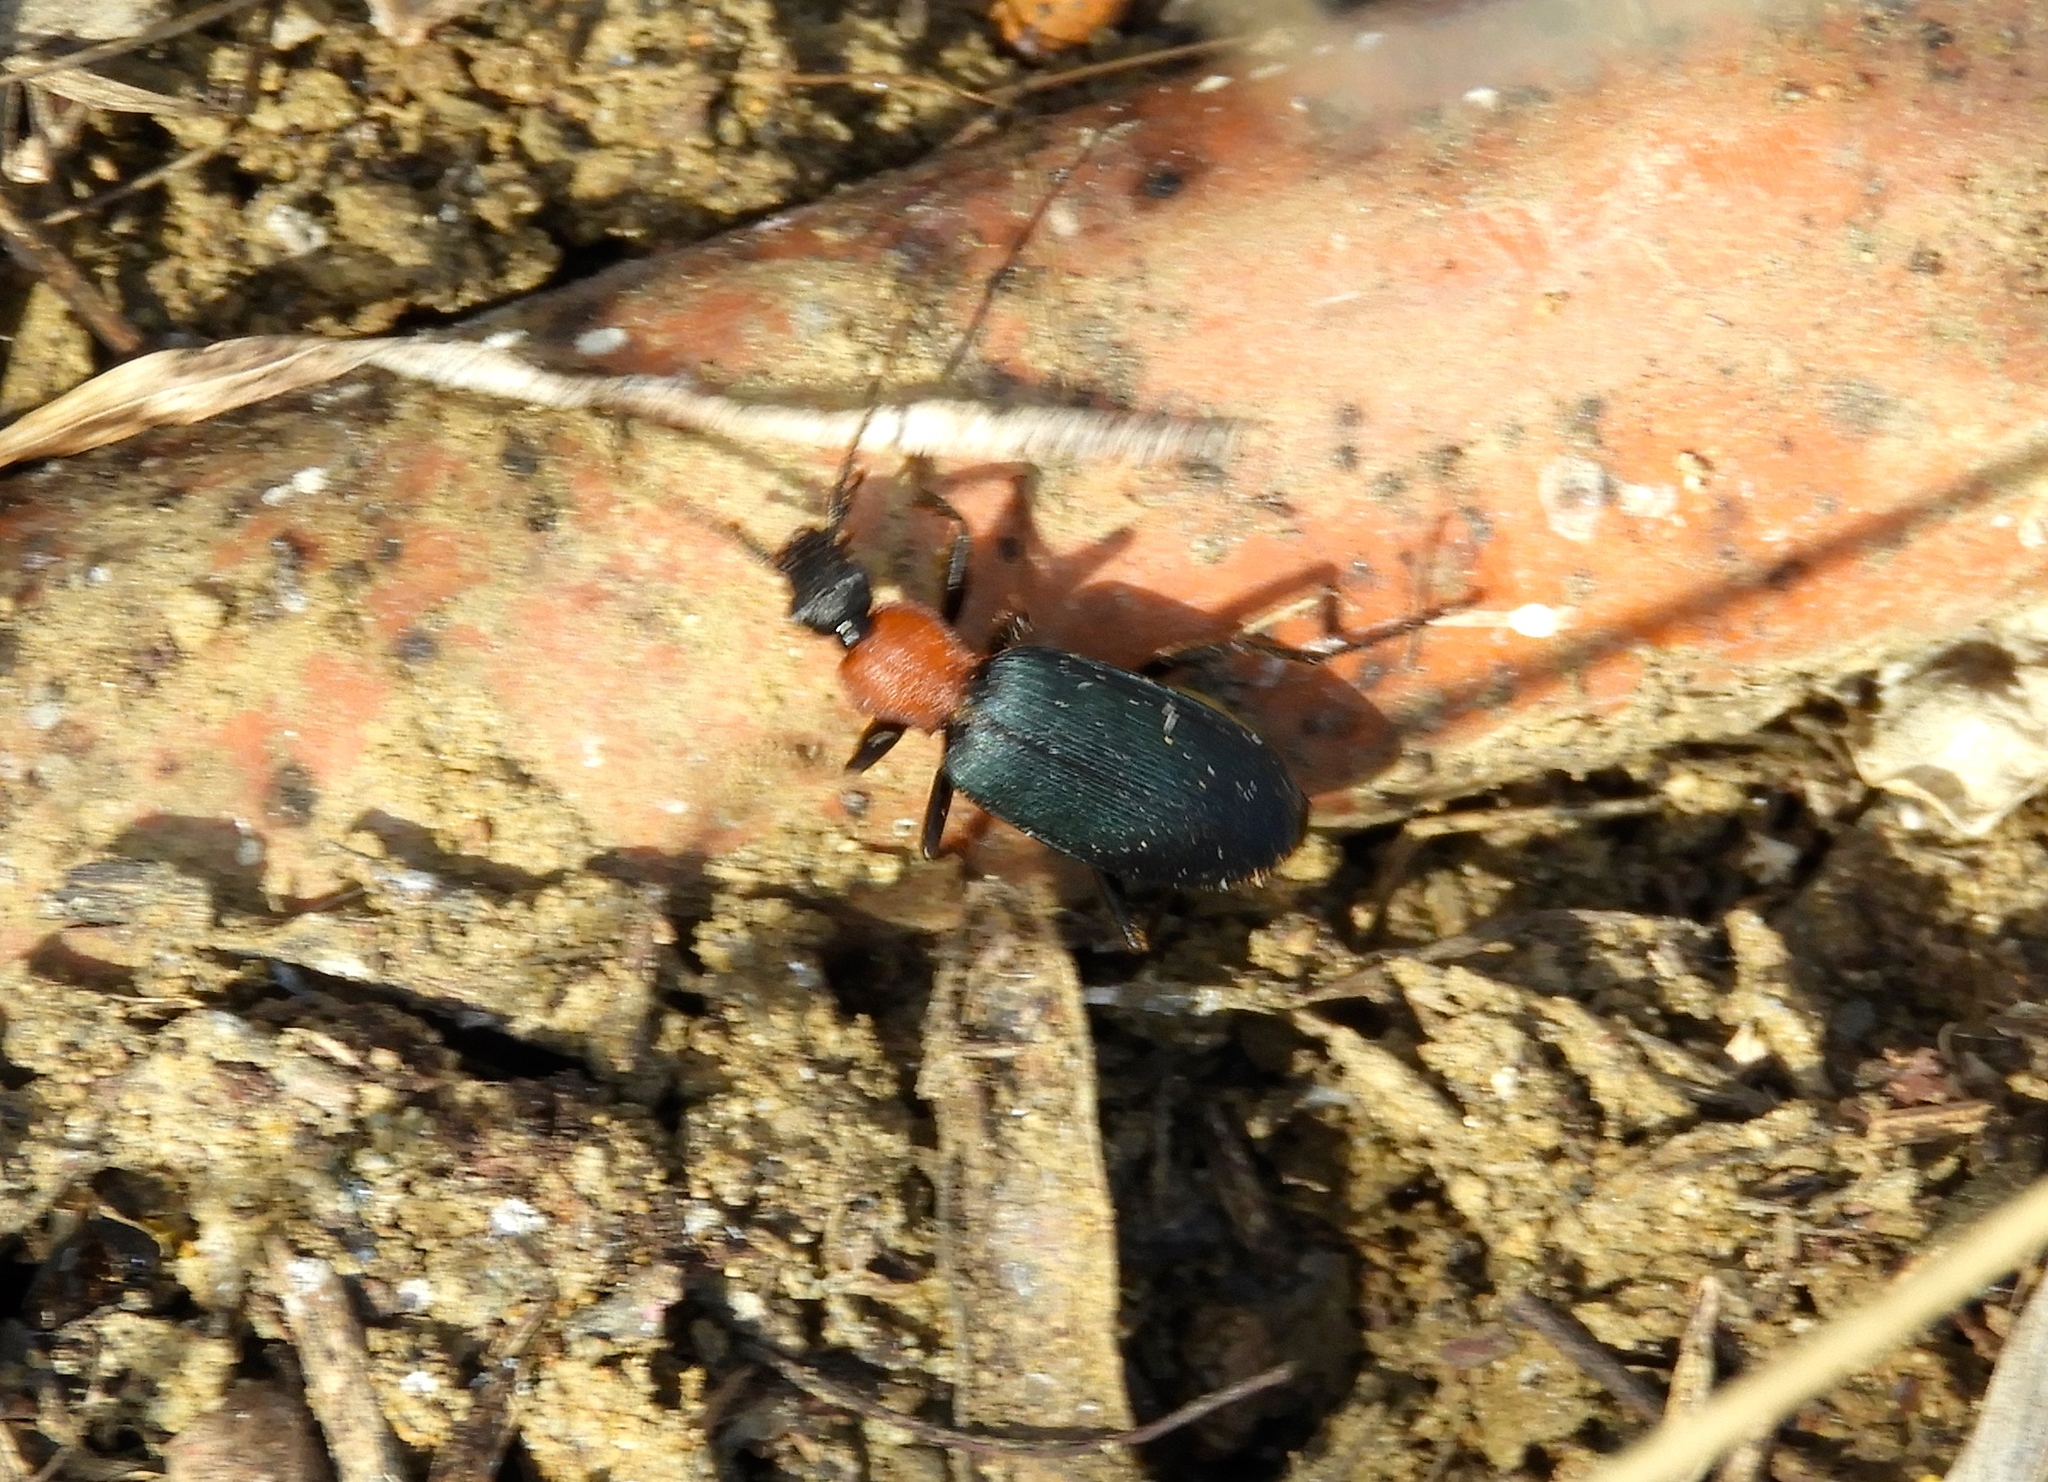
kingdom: Animalia
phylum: Arthropoda
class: Insecta
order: Coleoptera
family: Carabidae
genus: Galerita
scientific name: Galerita
